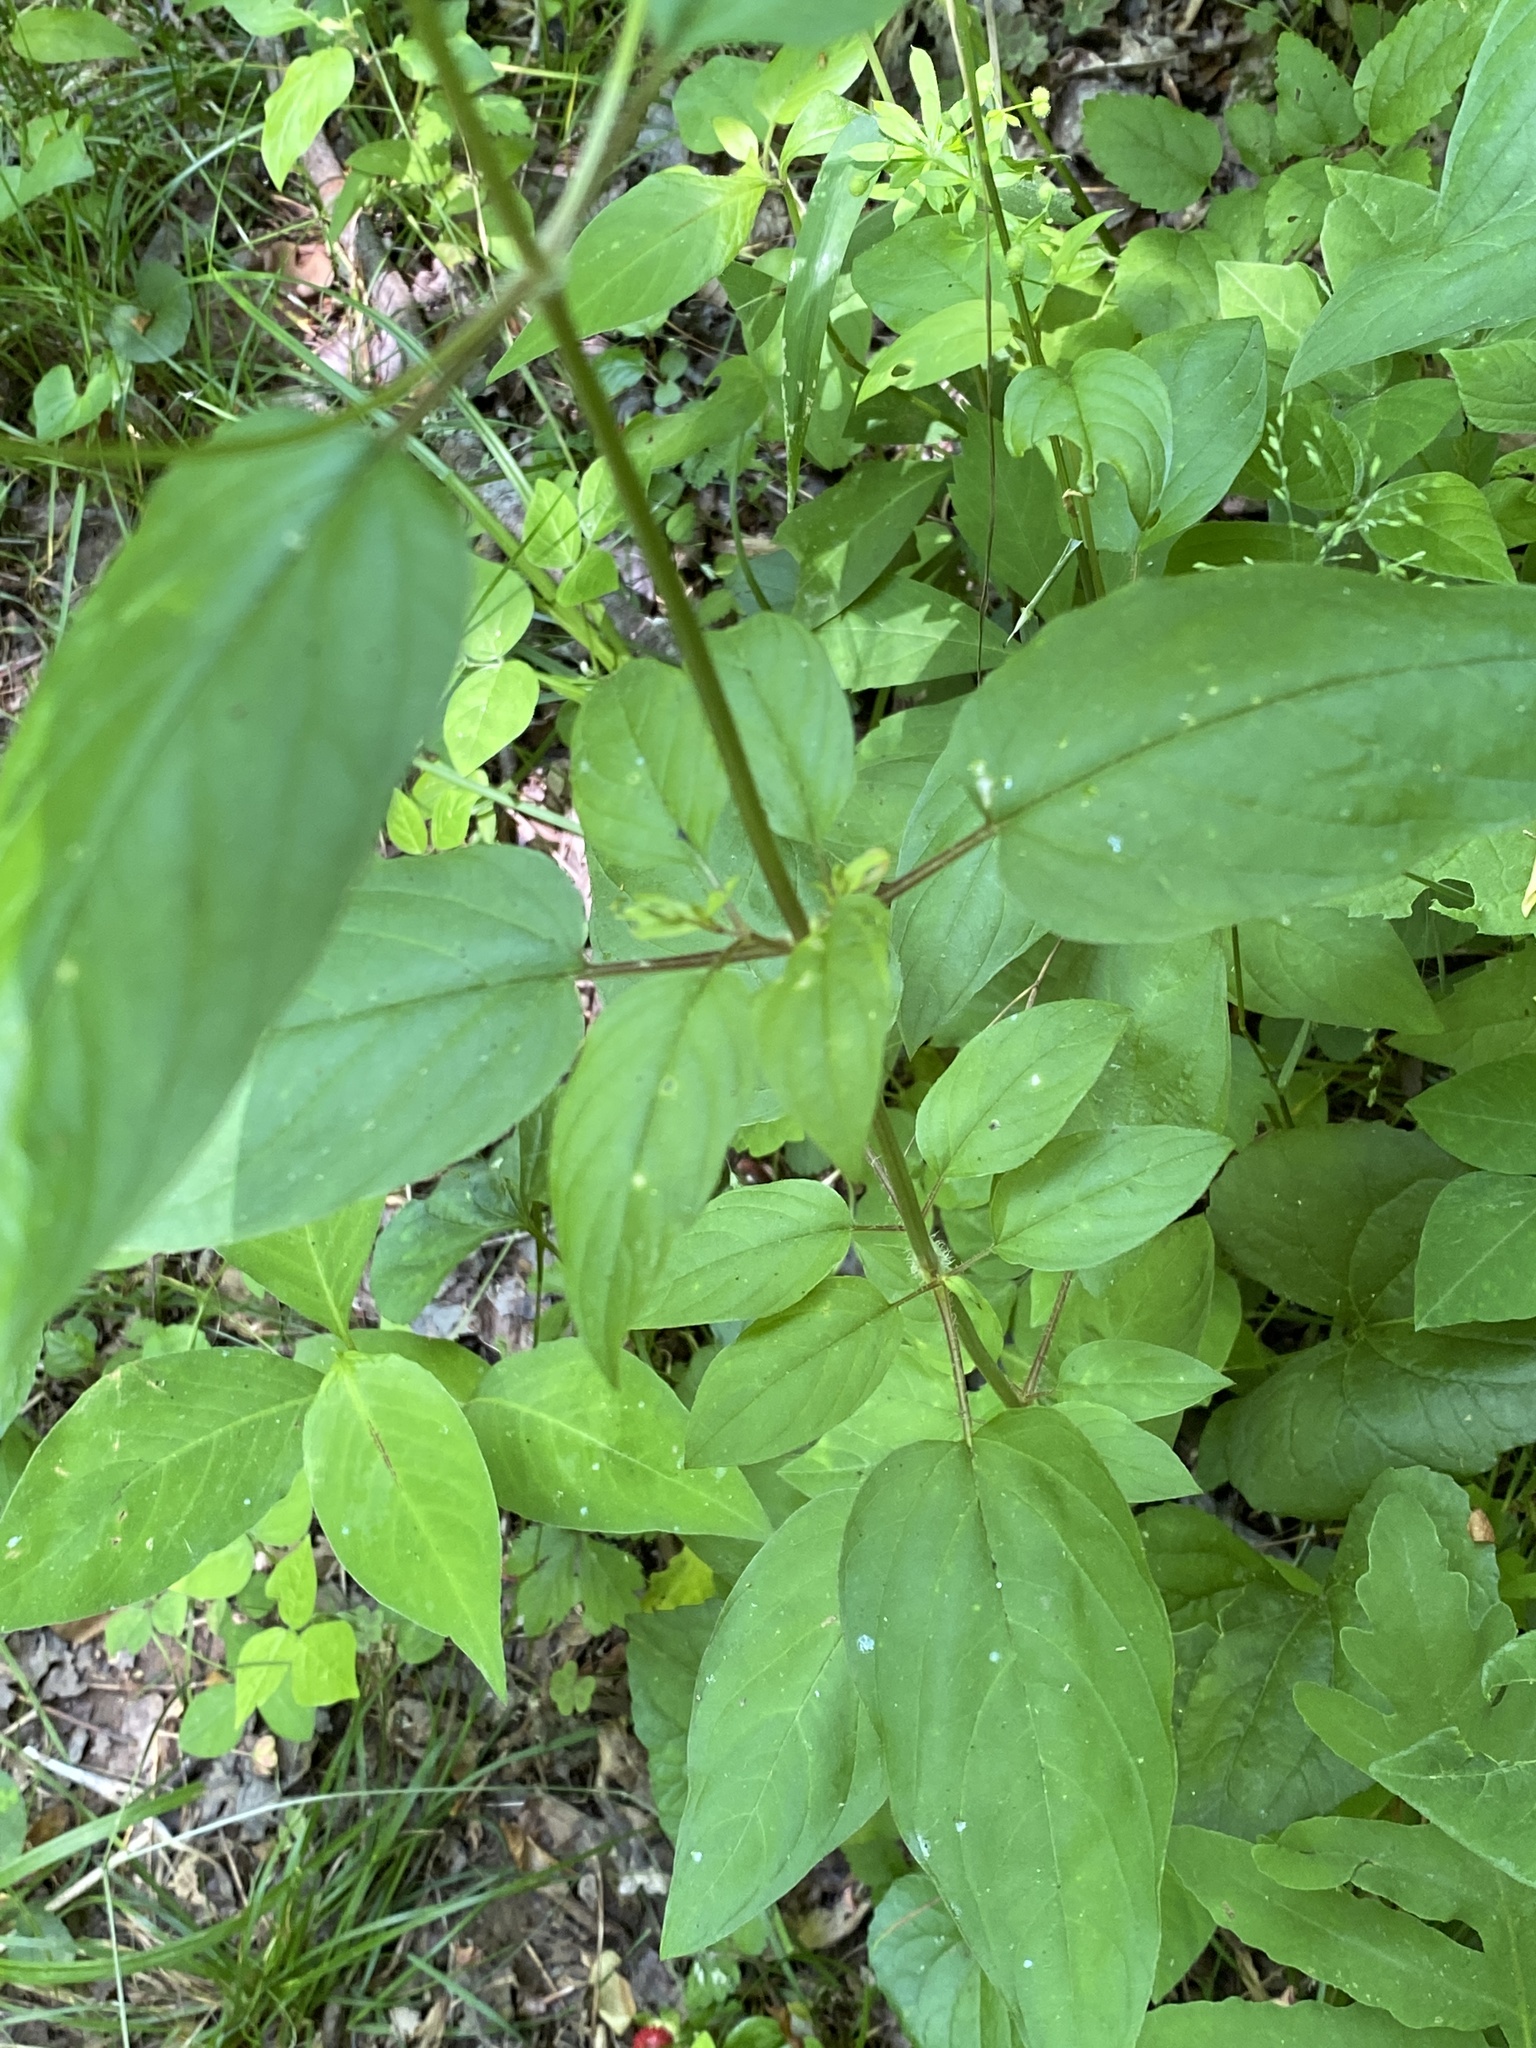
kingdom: Plantae
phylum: Tracheophyta
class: Magnoliopsida
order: Ericales
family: Primulaceae
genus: Lysimachia
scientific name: Lysimachia ciliata
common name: Fringed loosestrife
